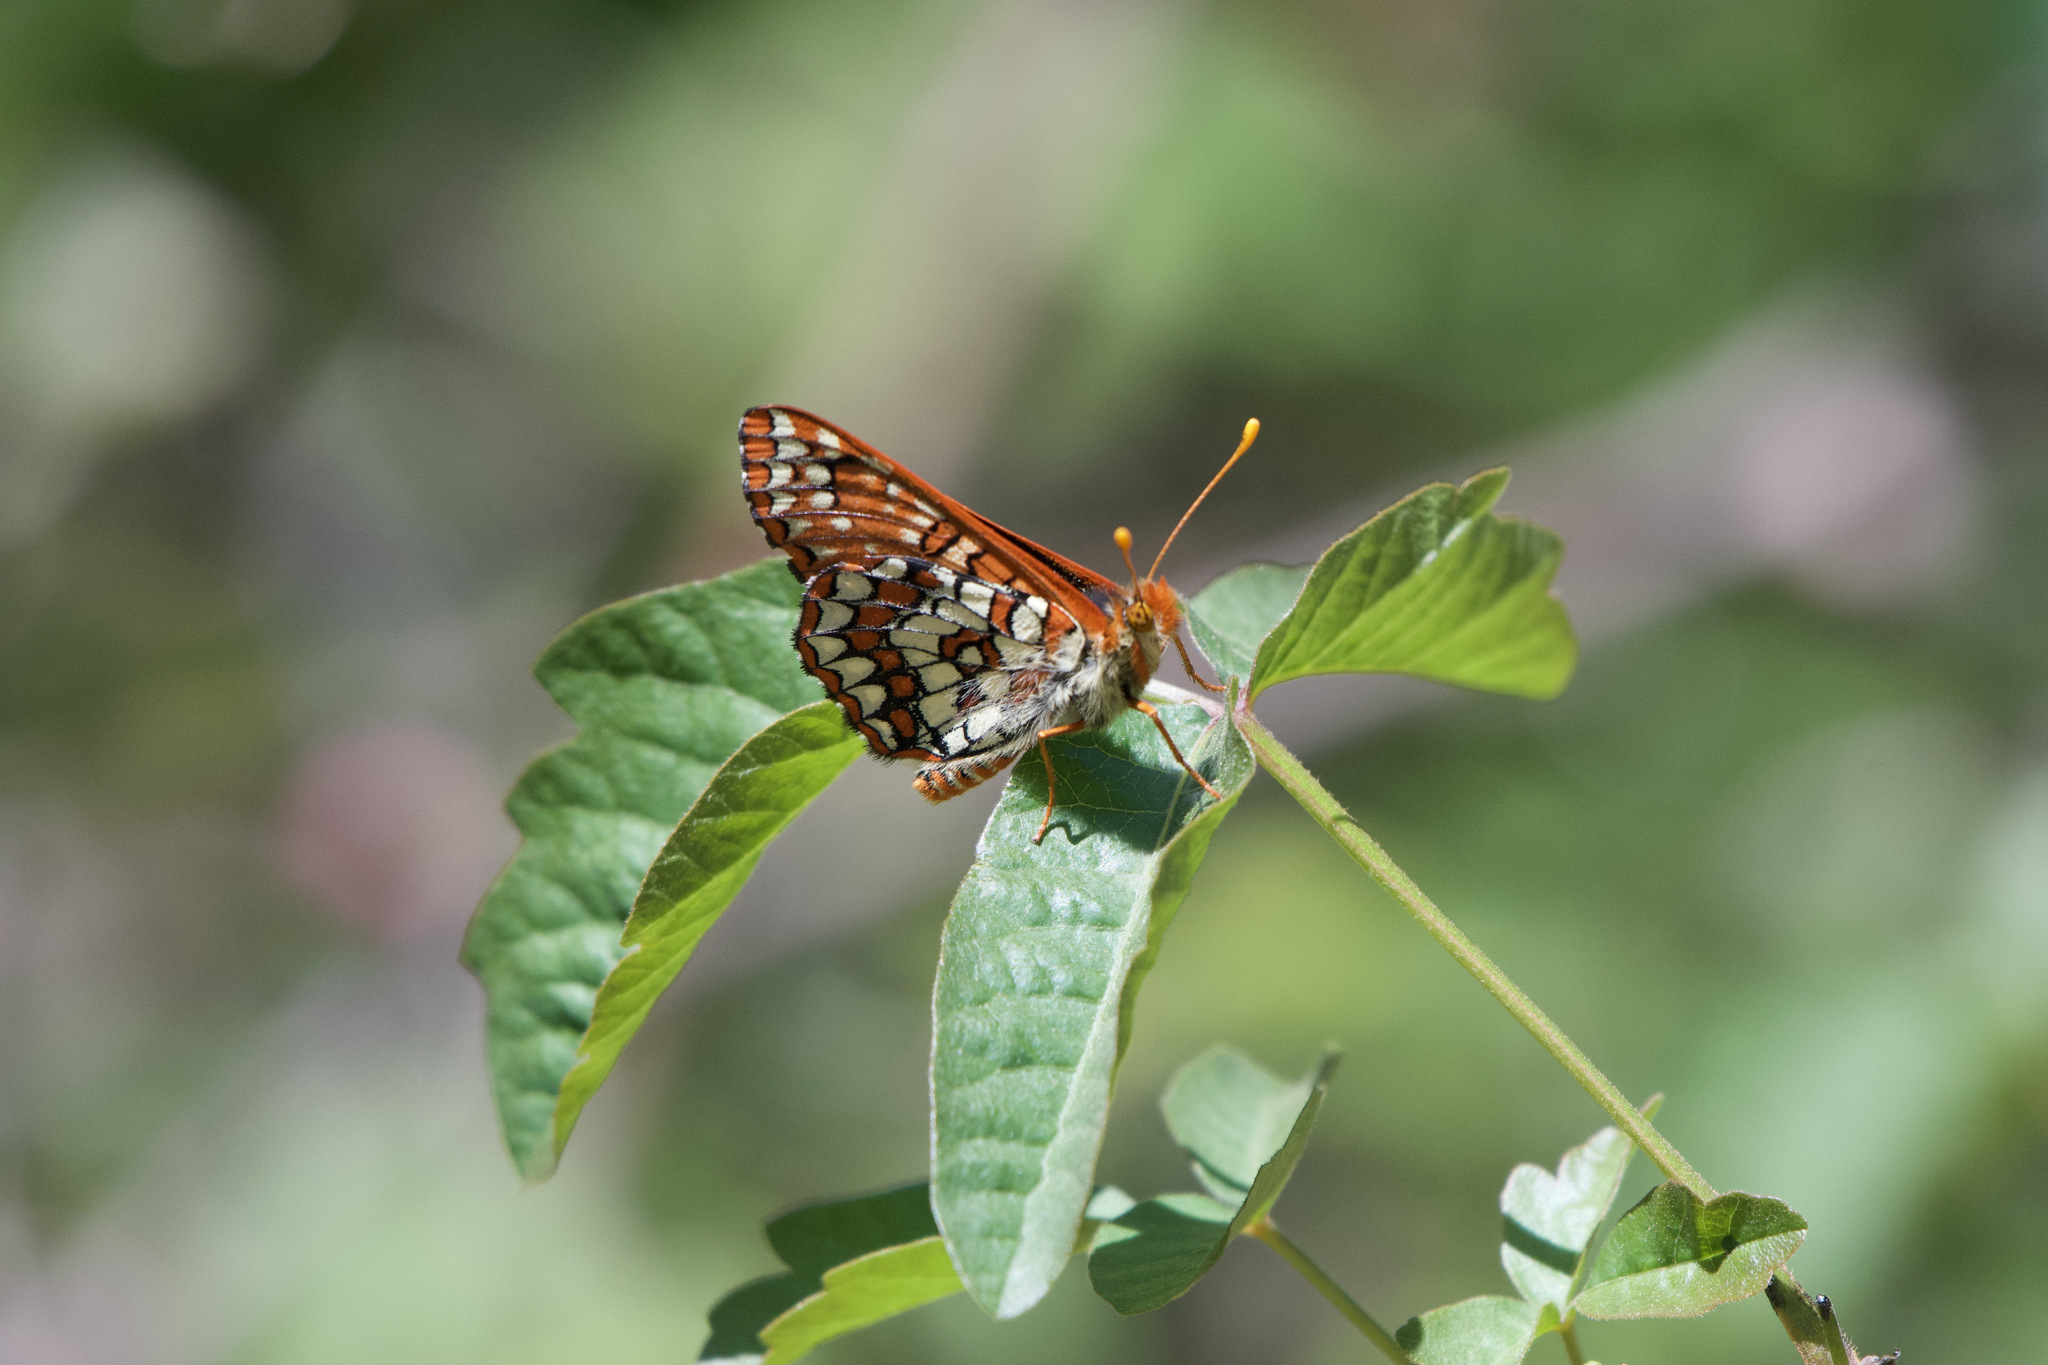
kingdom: Animalia
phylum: Arthropoda
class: Insecta
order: Lepidoptera
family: Nymphalidae
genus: Occidryas
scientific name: Occidryas chalcedona
